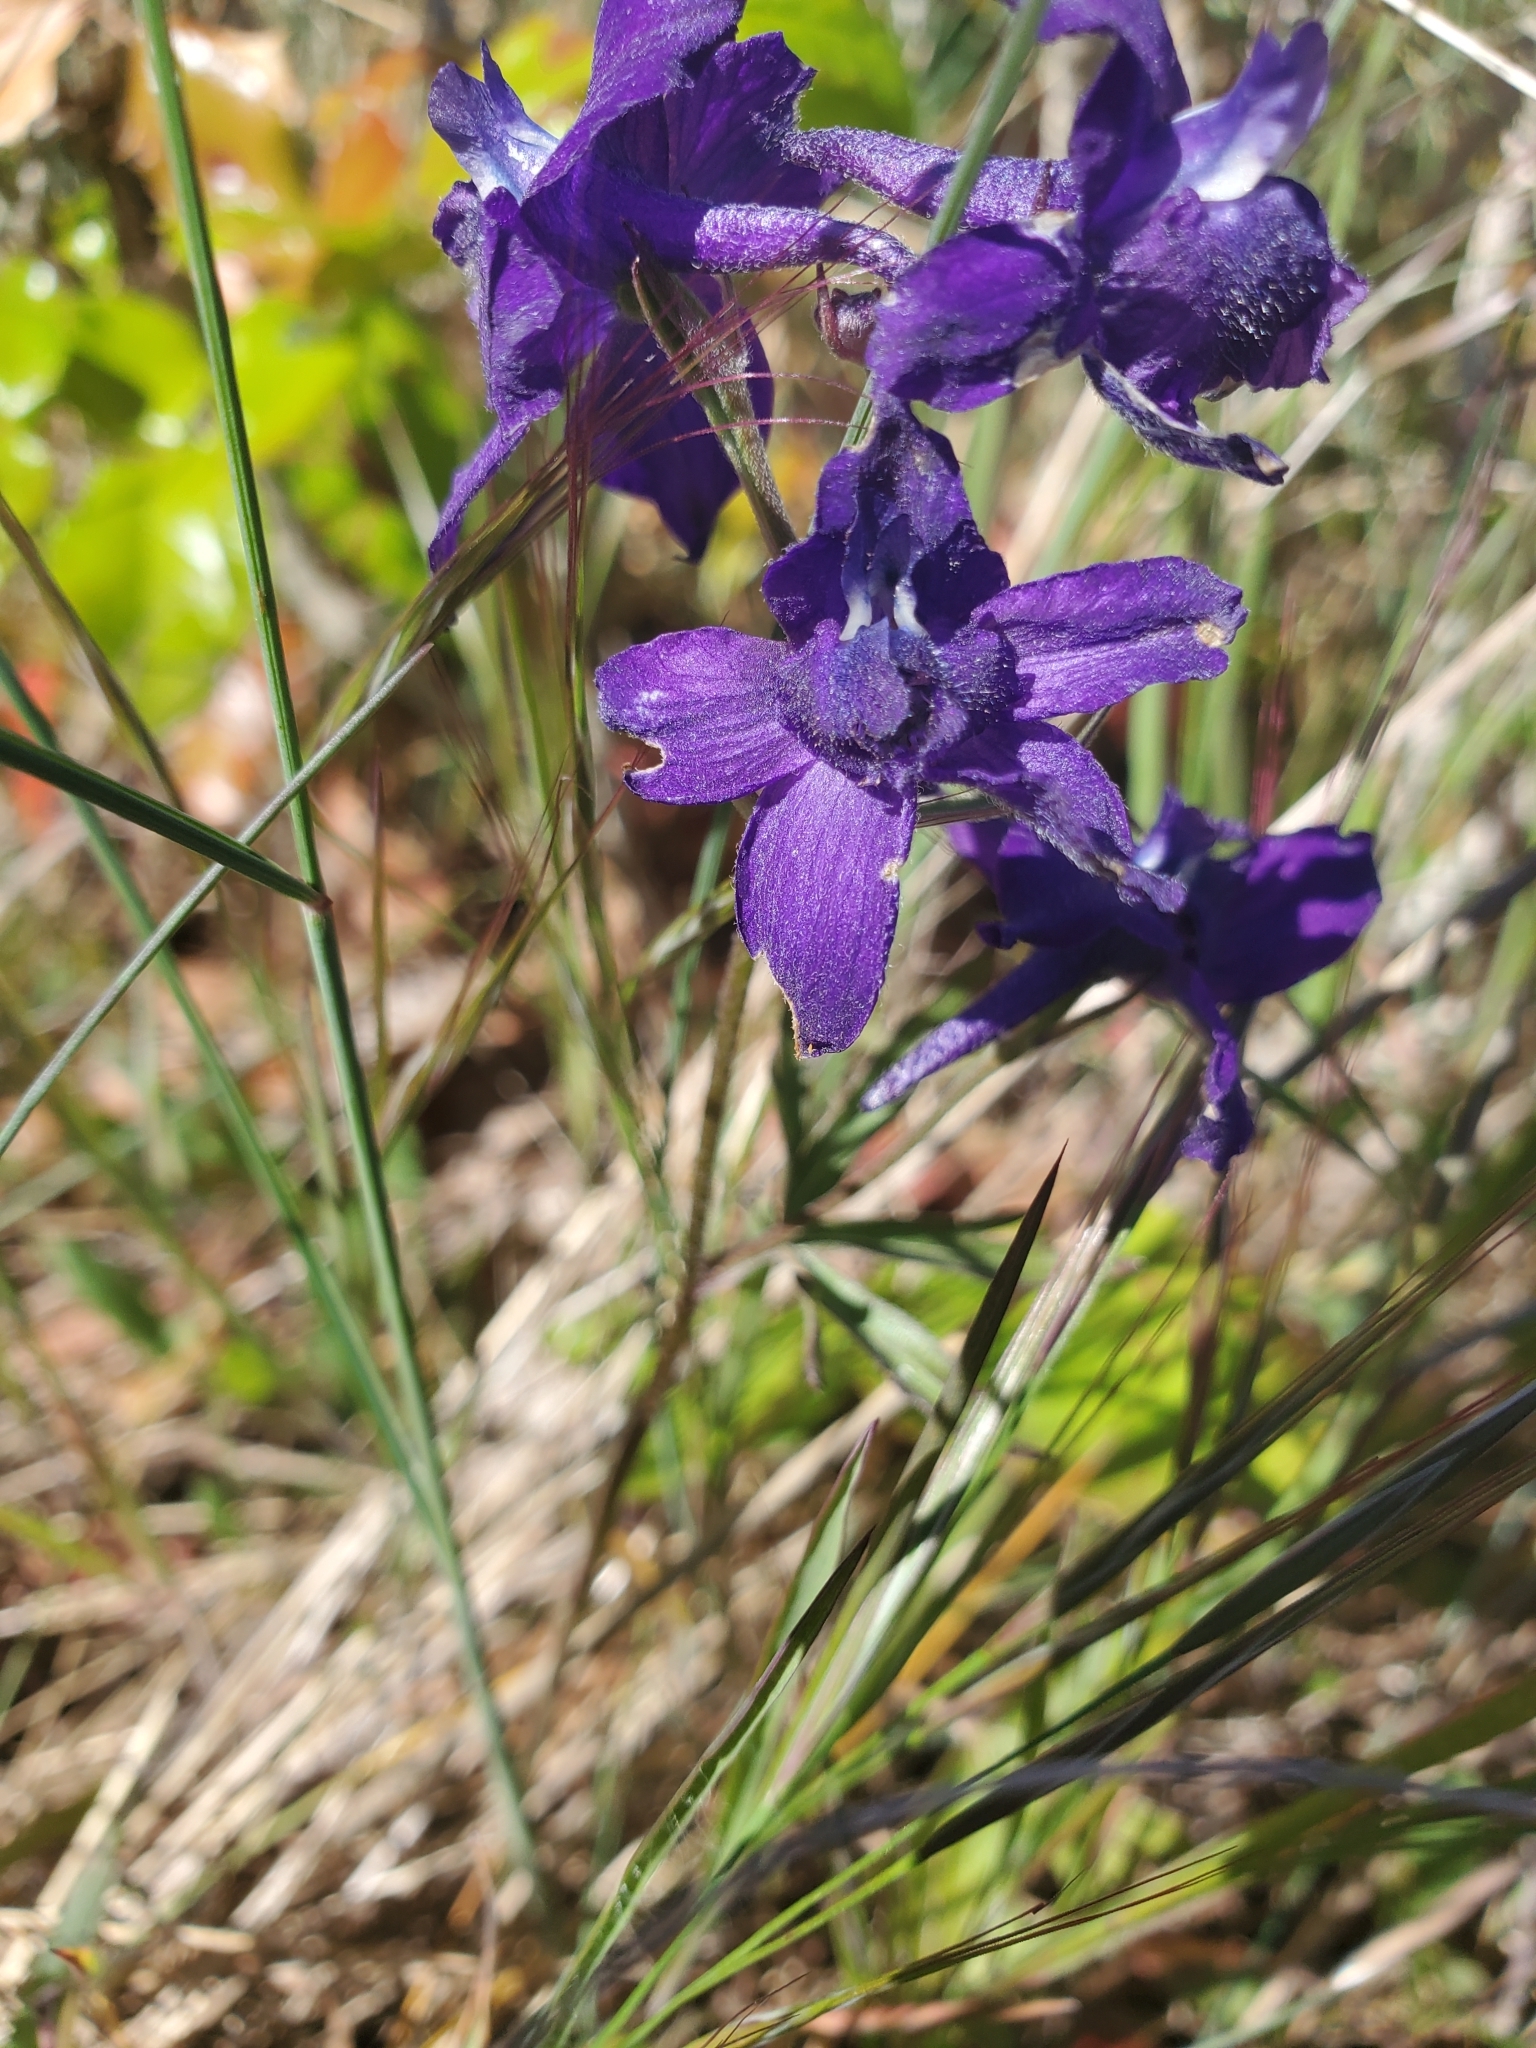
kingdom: Plantae
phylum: Tracheophyta
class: Magnoliopsida
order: Ranunculales
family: Ranunculaceae
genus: Delphinium
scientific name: Delphinium menziesii
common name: Menzies's larkspur
